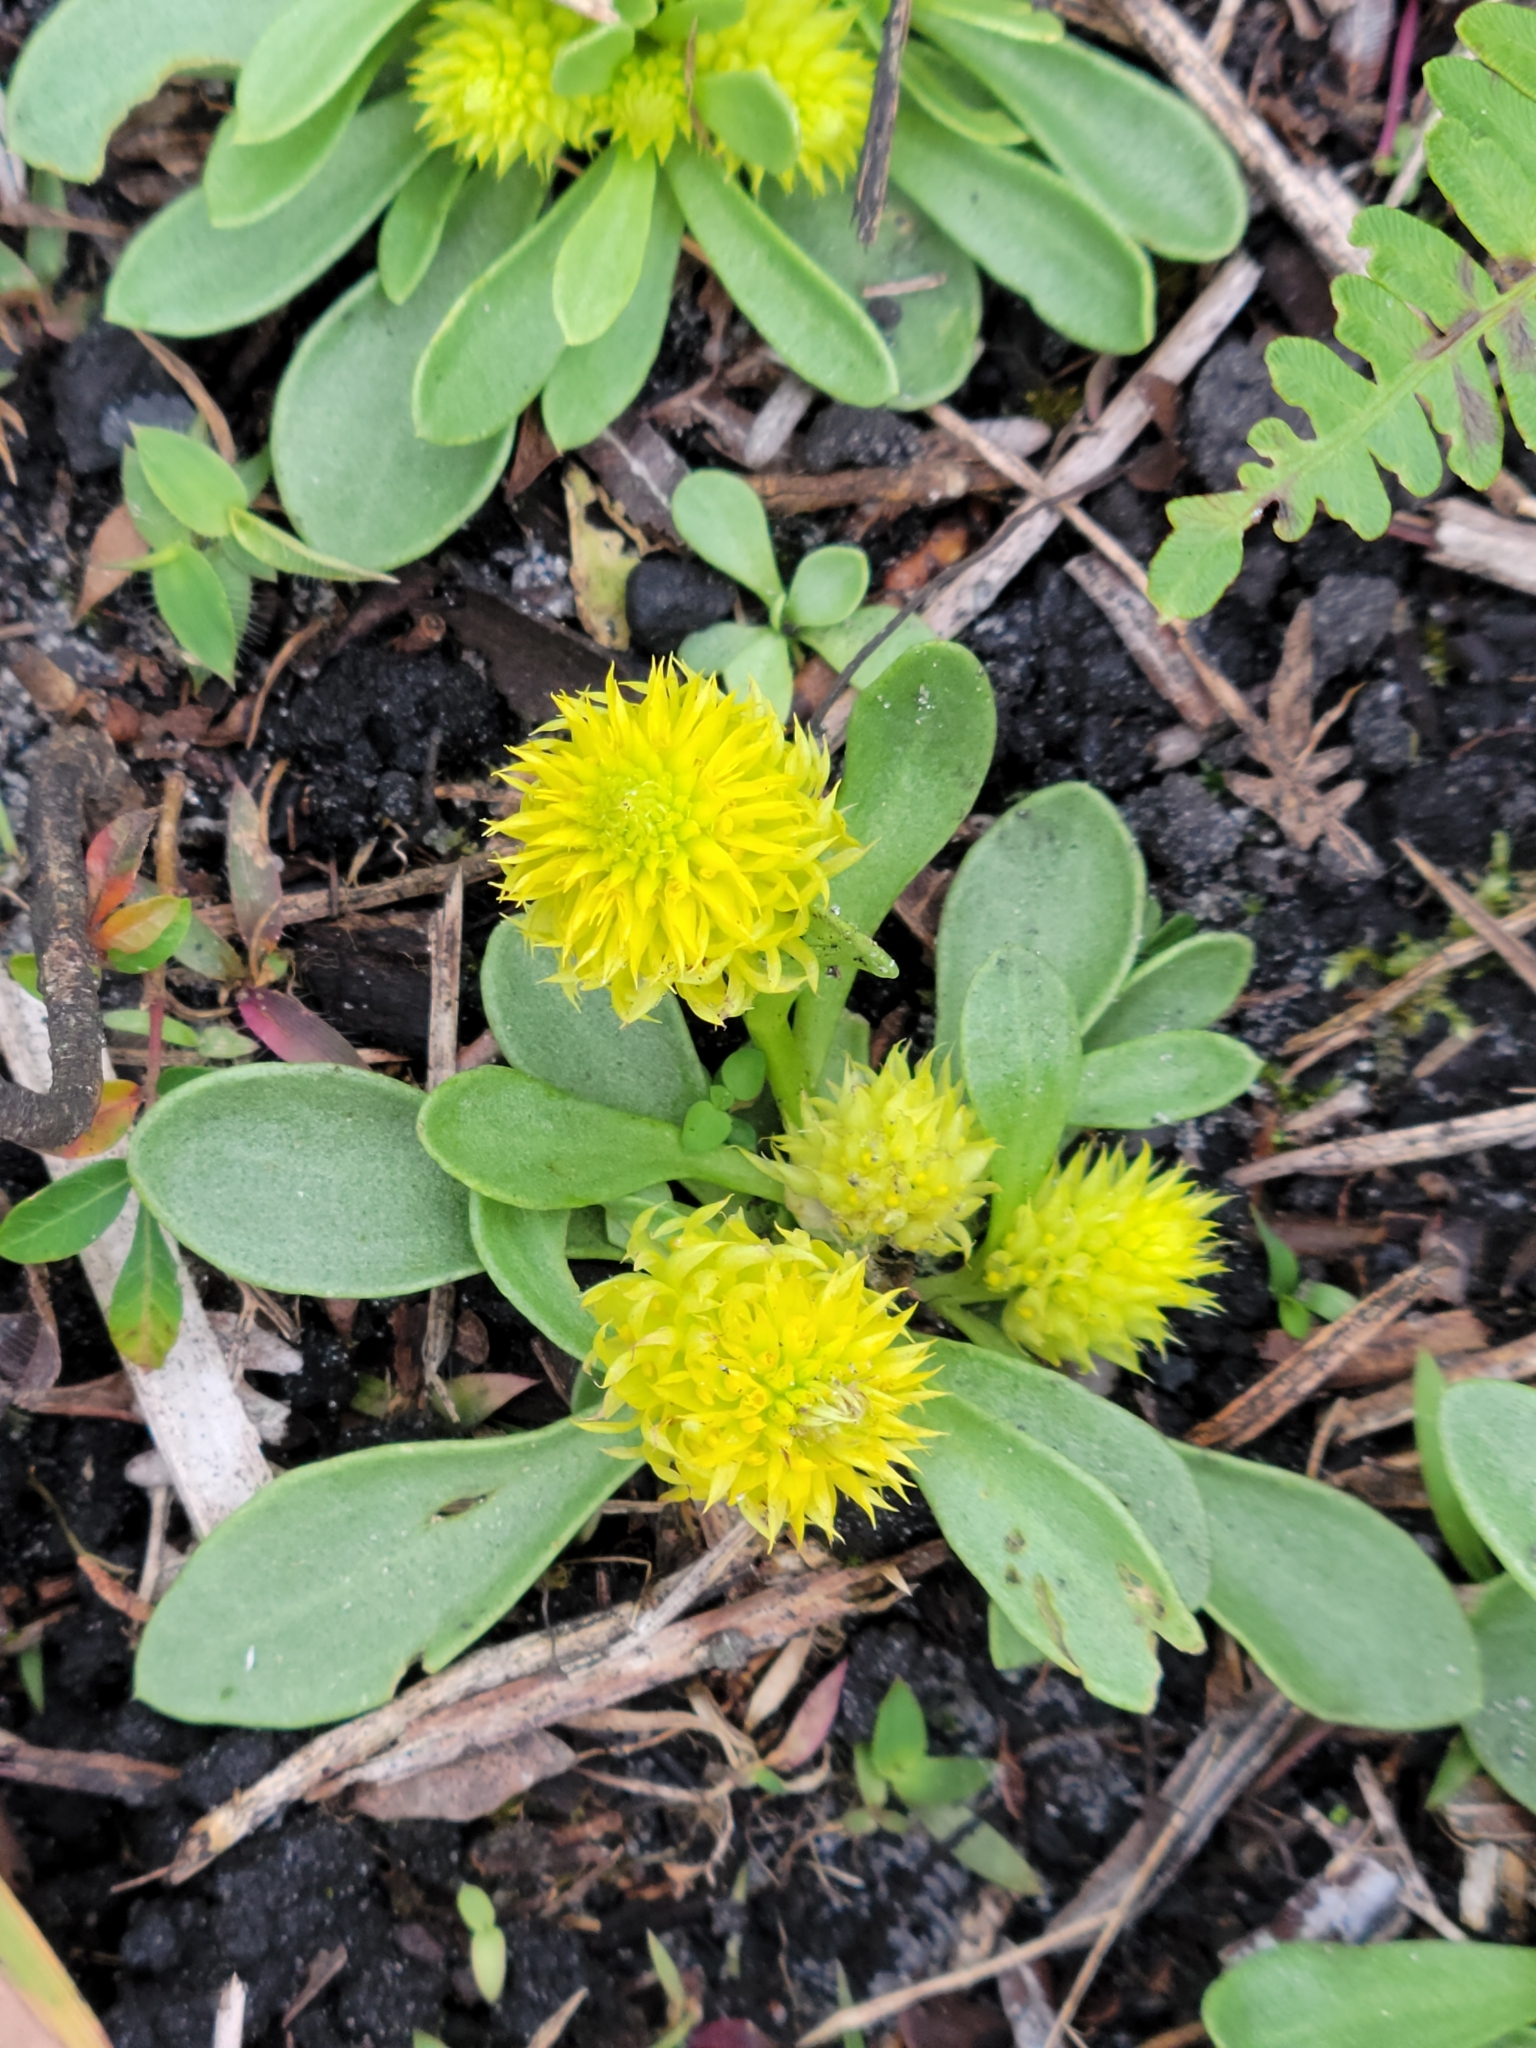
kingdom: Plantae
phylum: Tracheophyta
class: Magnoliopsida
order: Fabales
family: Polygalaceae
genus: Polygala
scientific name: Polygala nana
